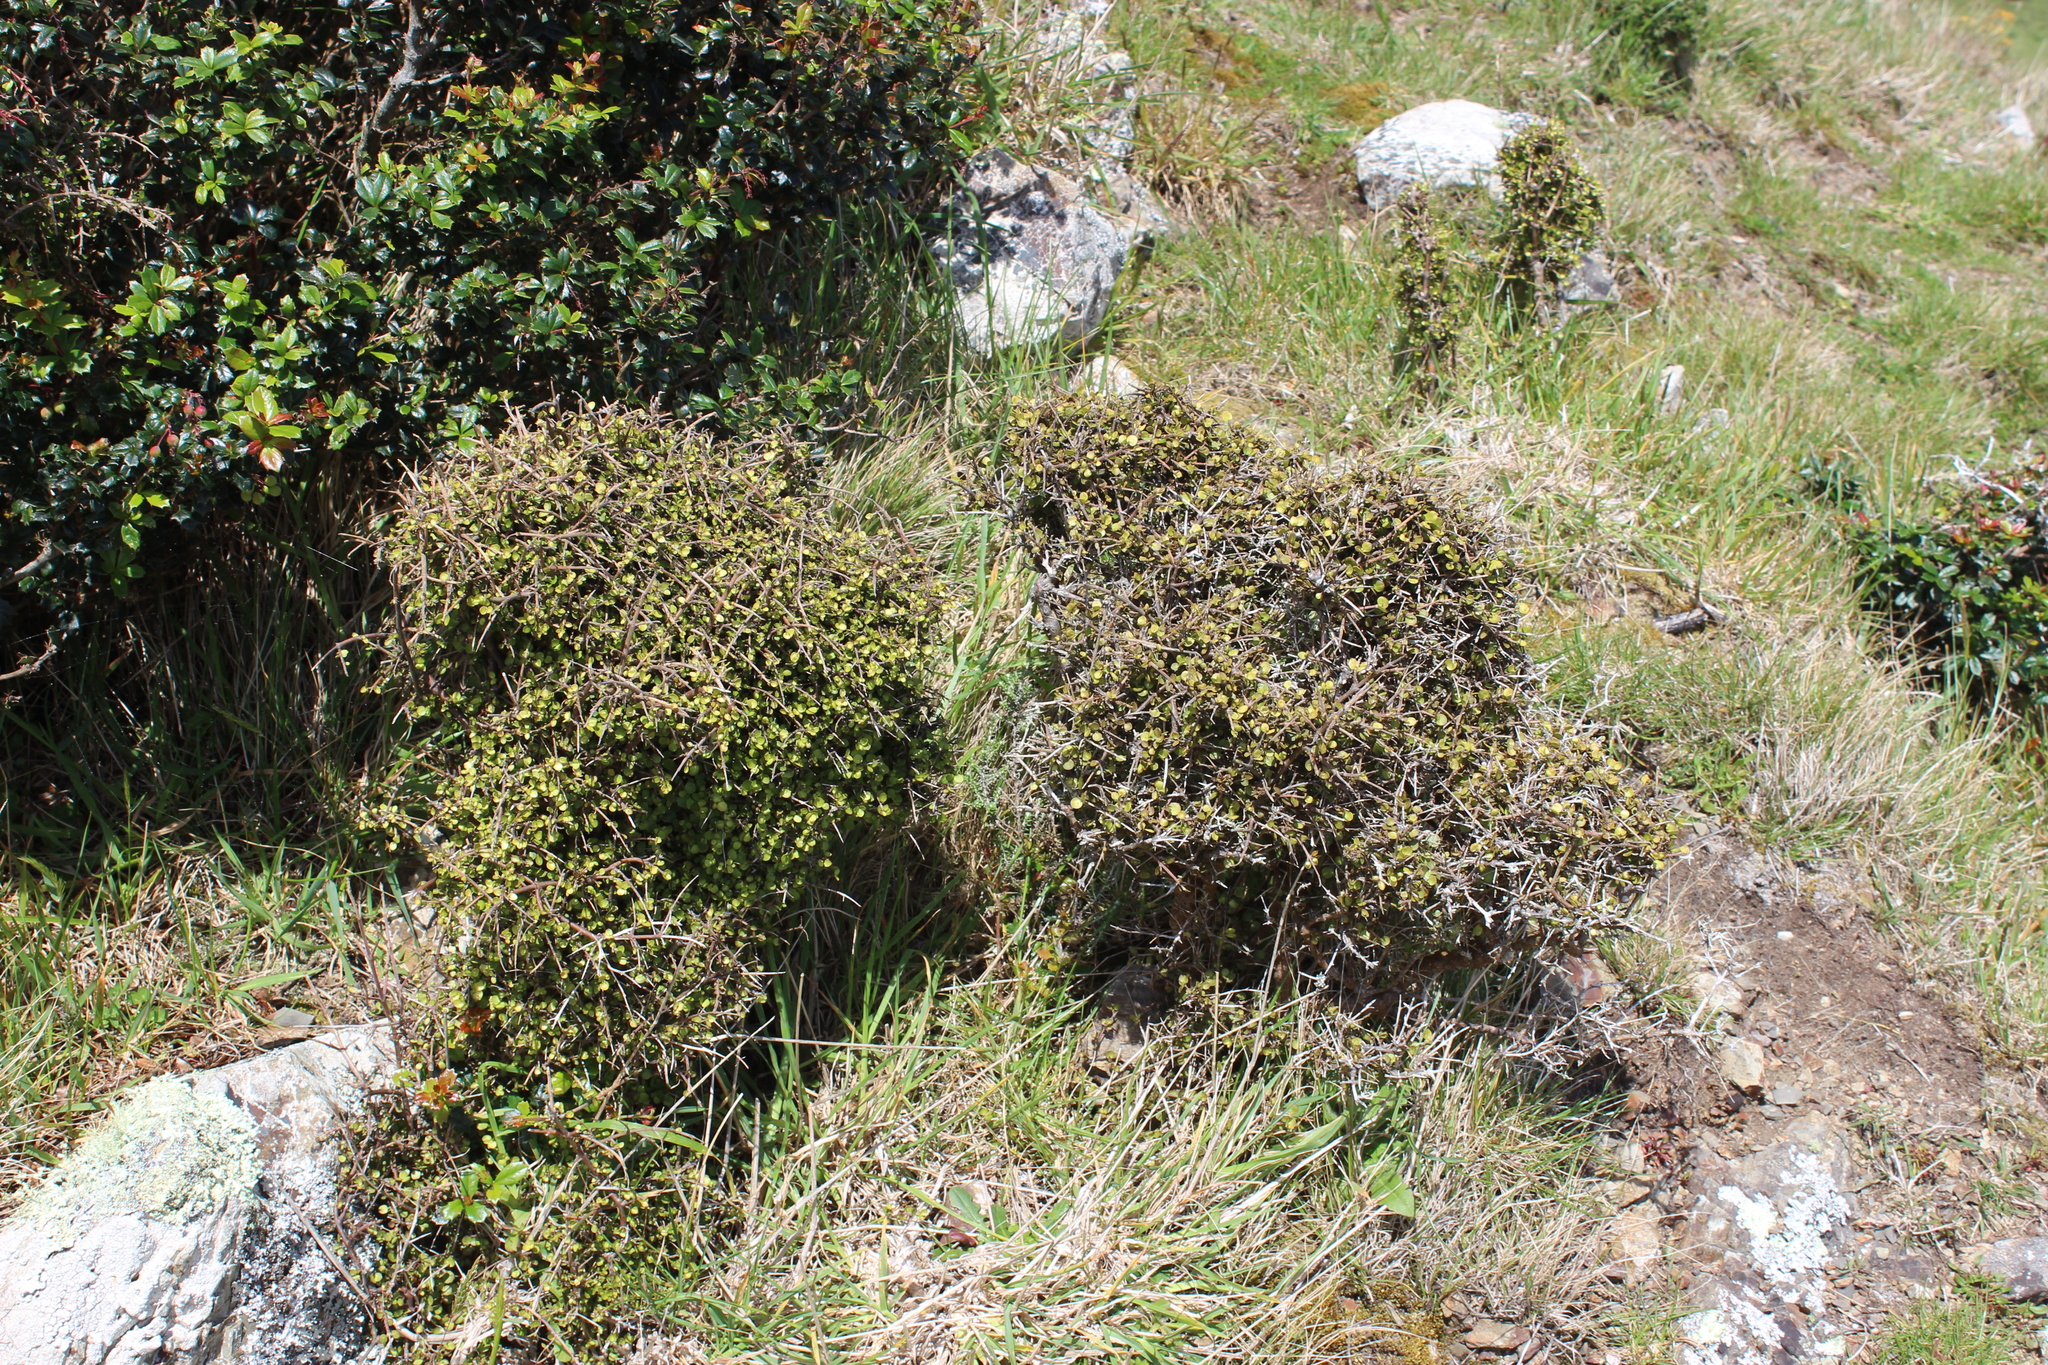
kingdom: Plantae
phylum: Tracheophyta
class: Magnoliopsida
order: Gentianales
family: Rubiaceae
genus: Coprosma
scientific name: Coprosma rhamnoides
